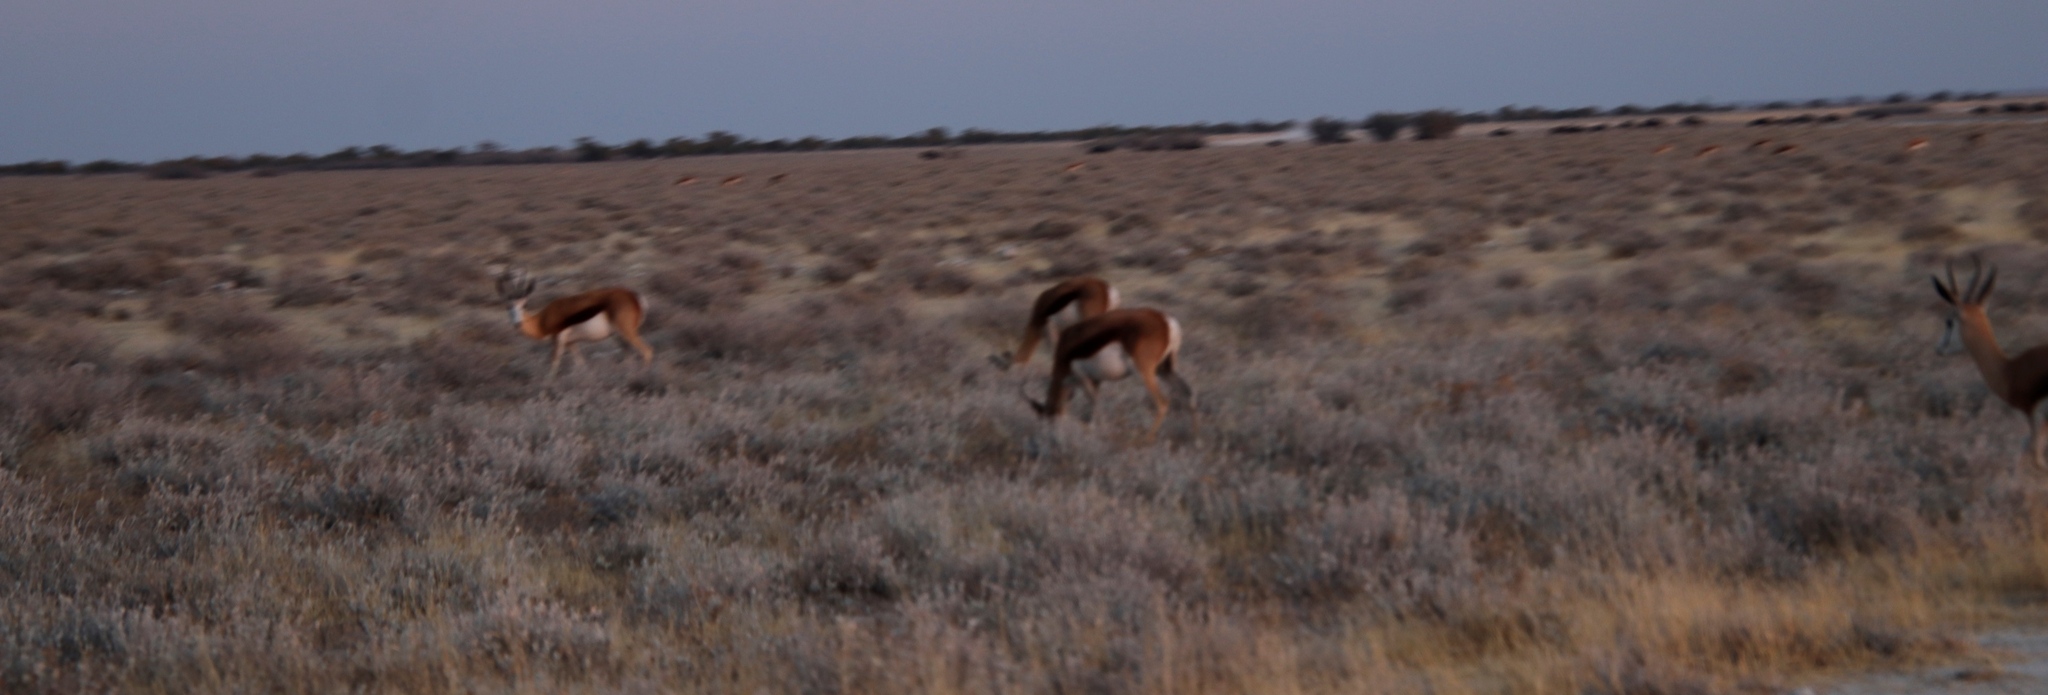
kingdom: Animalia
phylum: Chordata
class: Mammalia
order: Artiodactyla
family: Bovidae
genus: Antidorcas
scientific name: Antidorcas marsupialis
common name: Springbok
